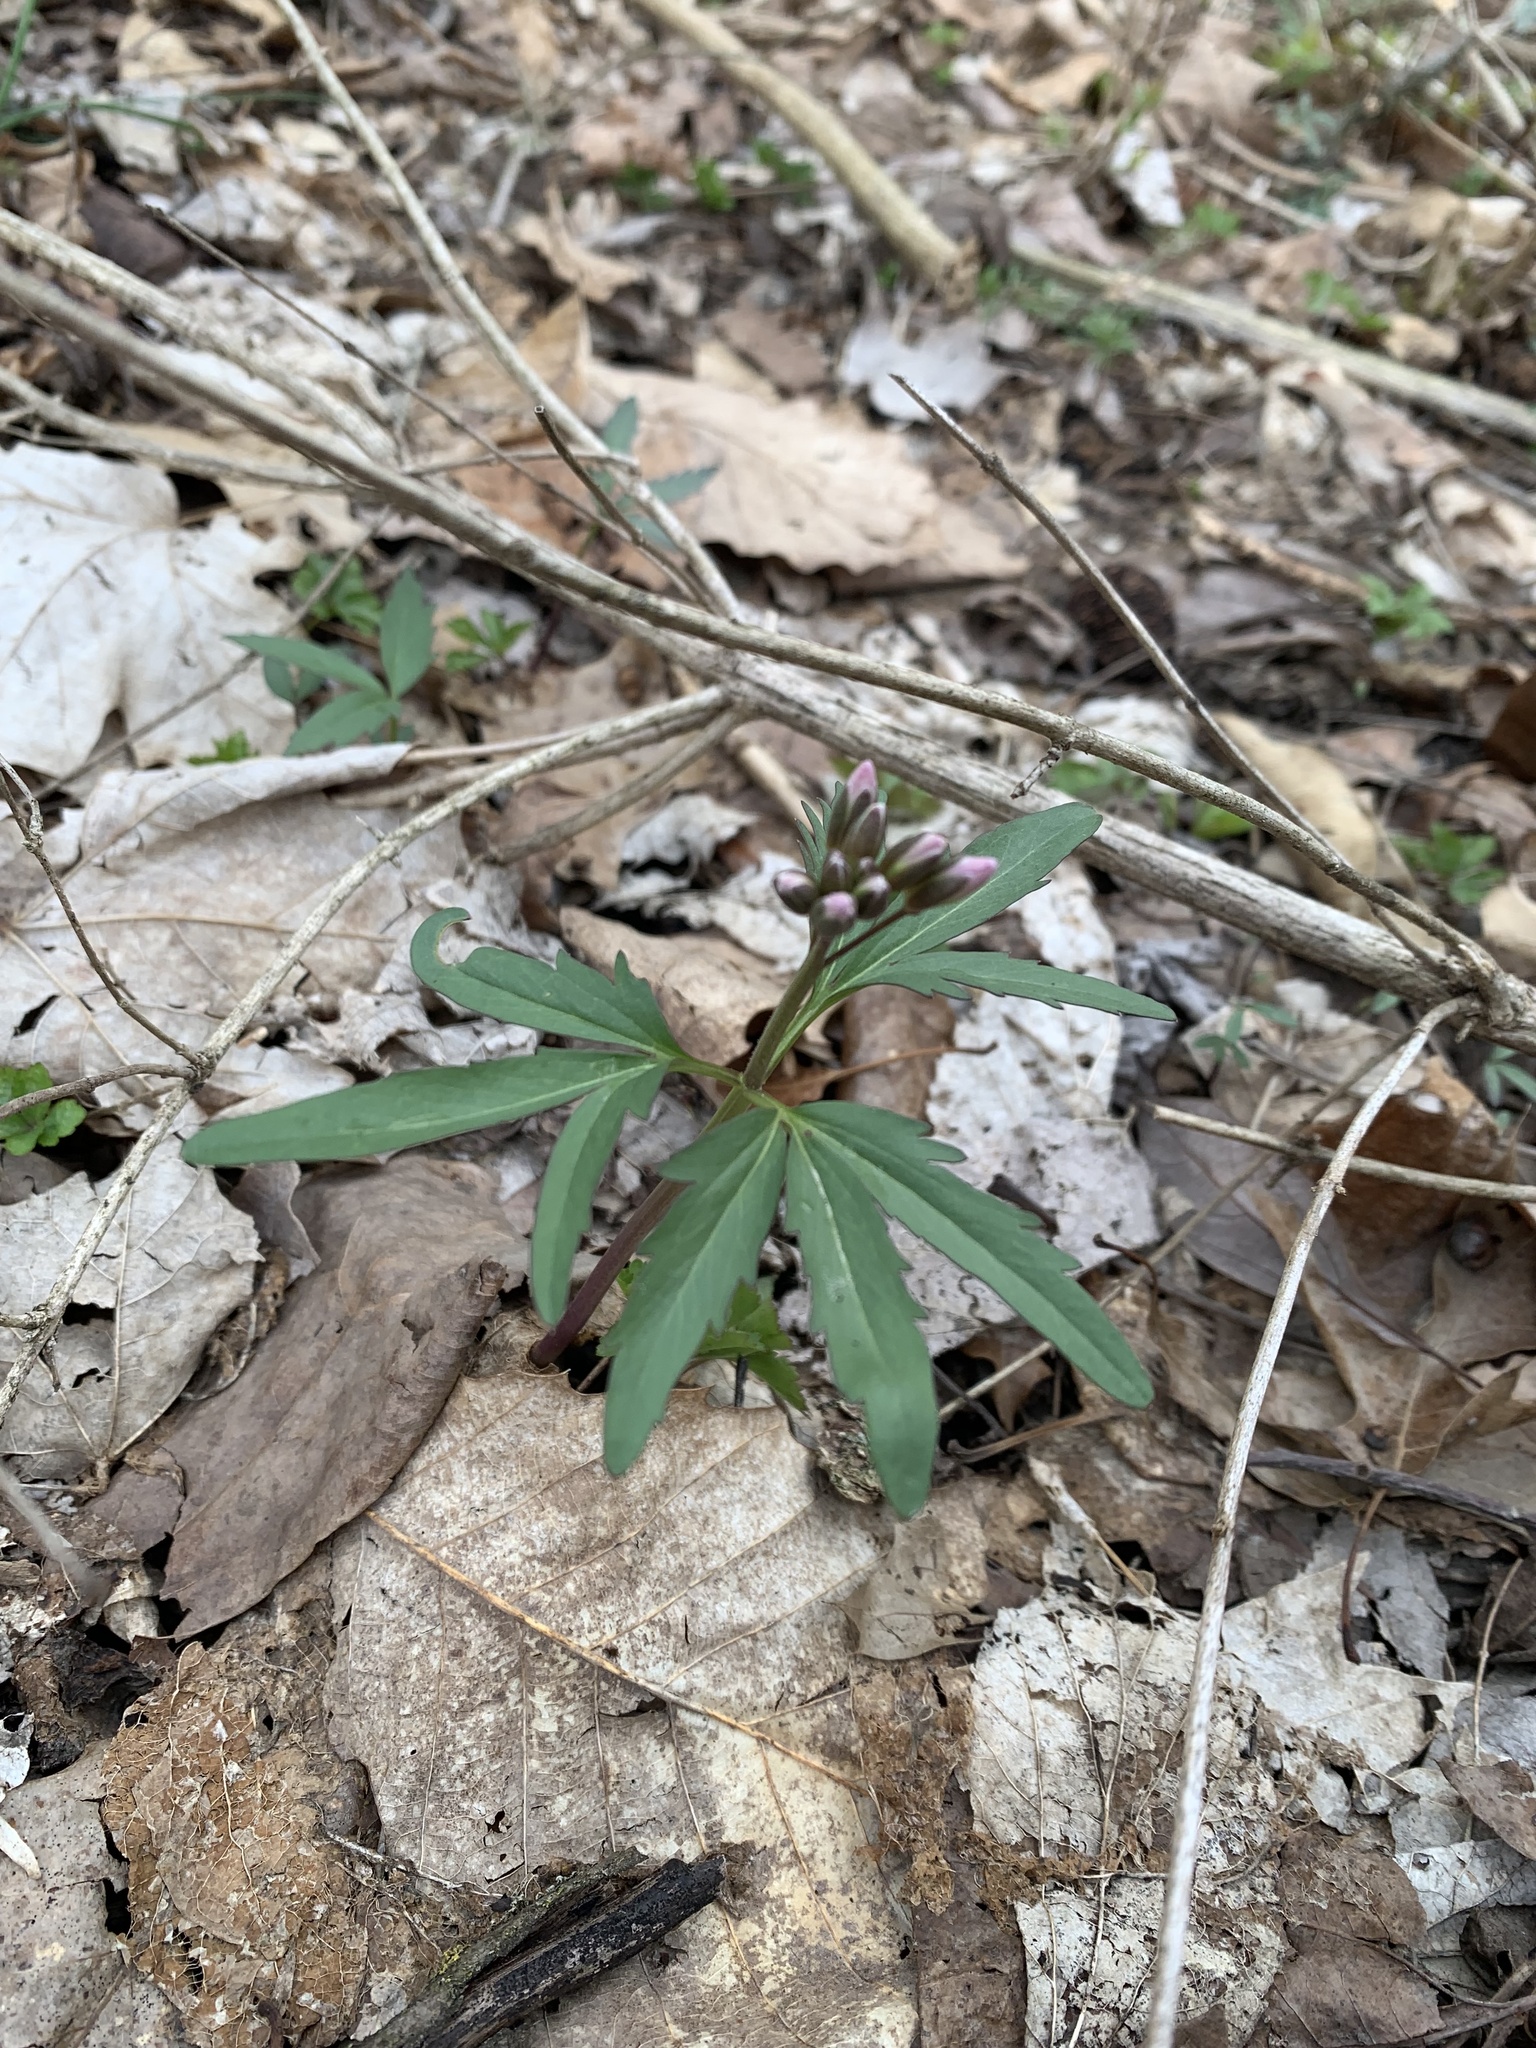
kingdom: Plantae
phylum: Tracheophyta
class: Magnoliopsida
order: Brassicales
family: Brassicaceae
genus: Cardamine
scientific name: Cardamine concatenata
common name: Cut-leaf toothcup
